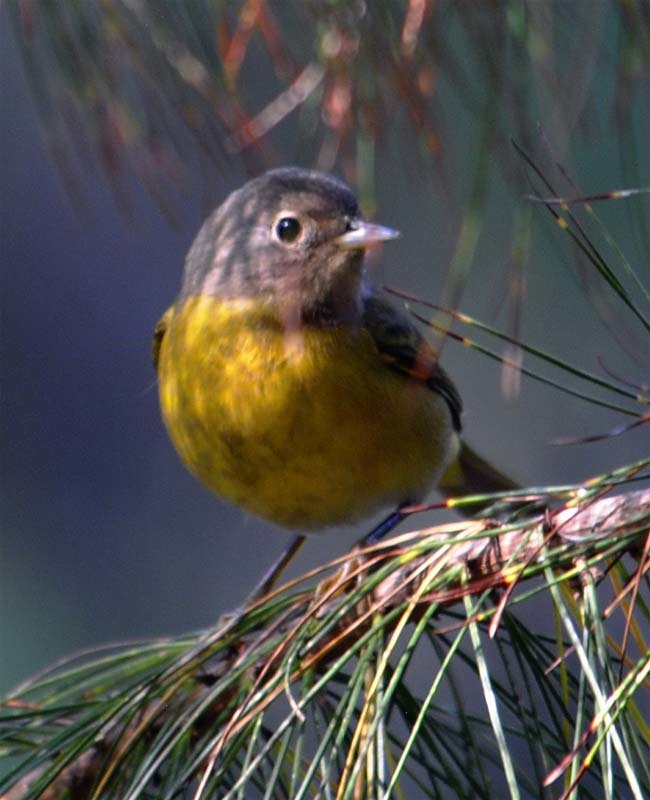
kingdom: Animalia
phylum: Chordata
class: Aves
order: Passeriformes
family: Parulidae
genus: Leiothlypis
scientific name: Leiothlypis ruficapilla
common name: Nashville warbler
